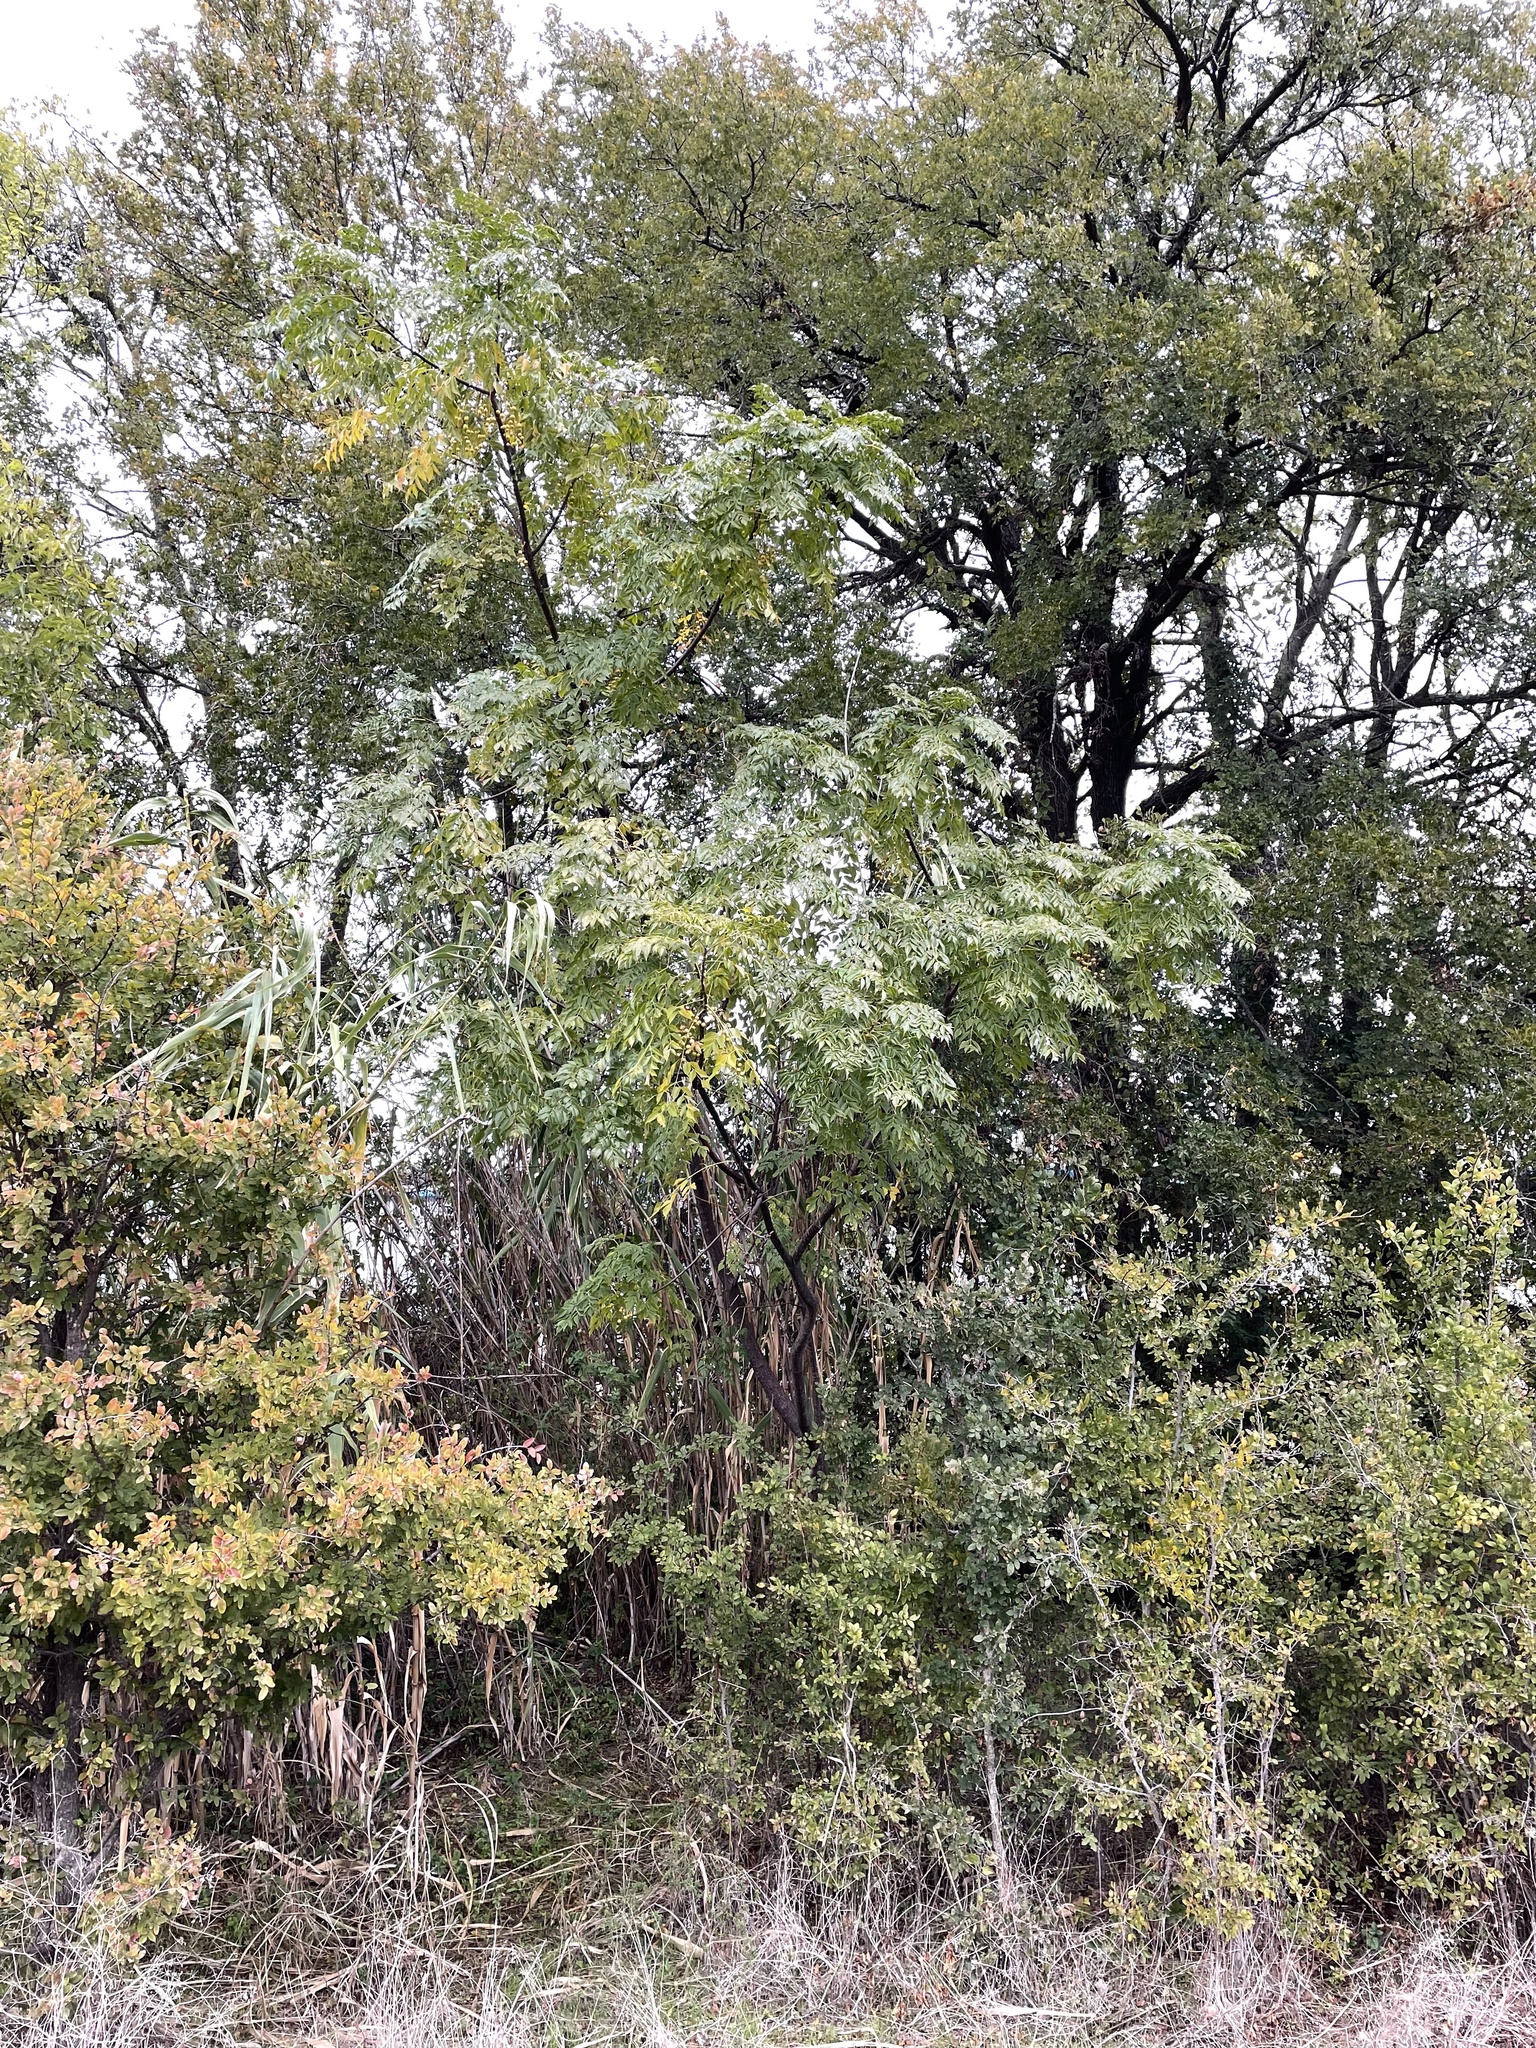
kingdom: Plantae
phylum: Tracheophyta
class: Magnoliopsida
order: Sapindales
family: Meliaceae
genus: Melia
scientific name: Melia azedarach
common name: Chinaberrytree
